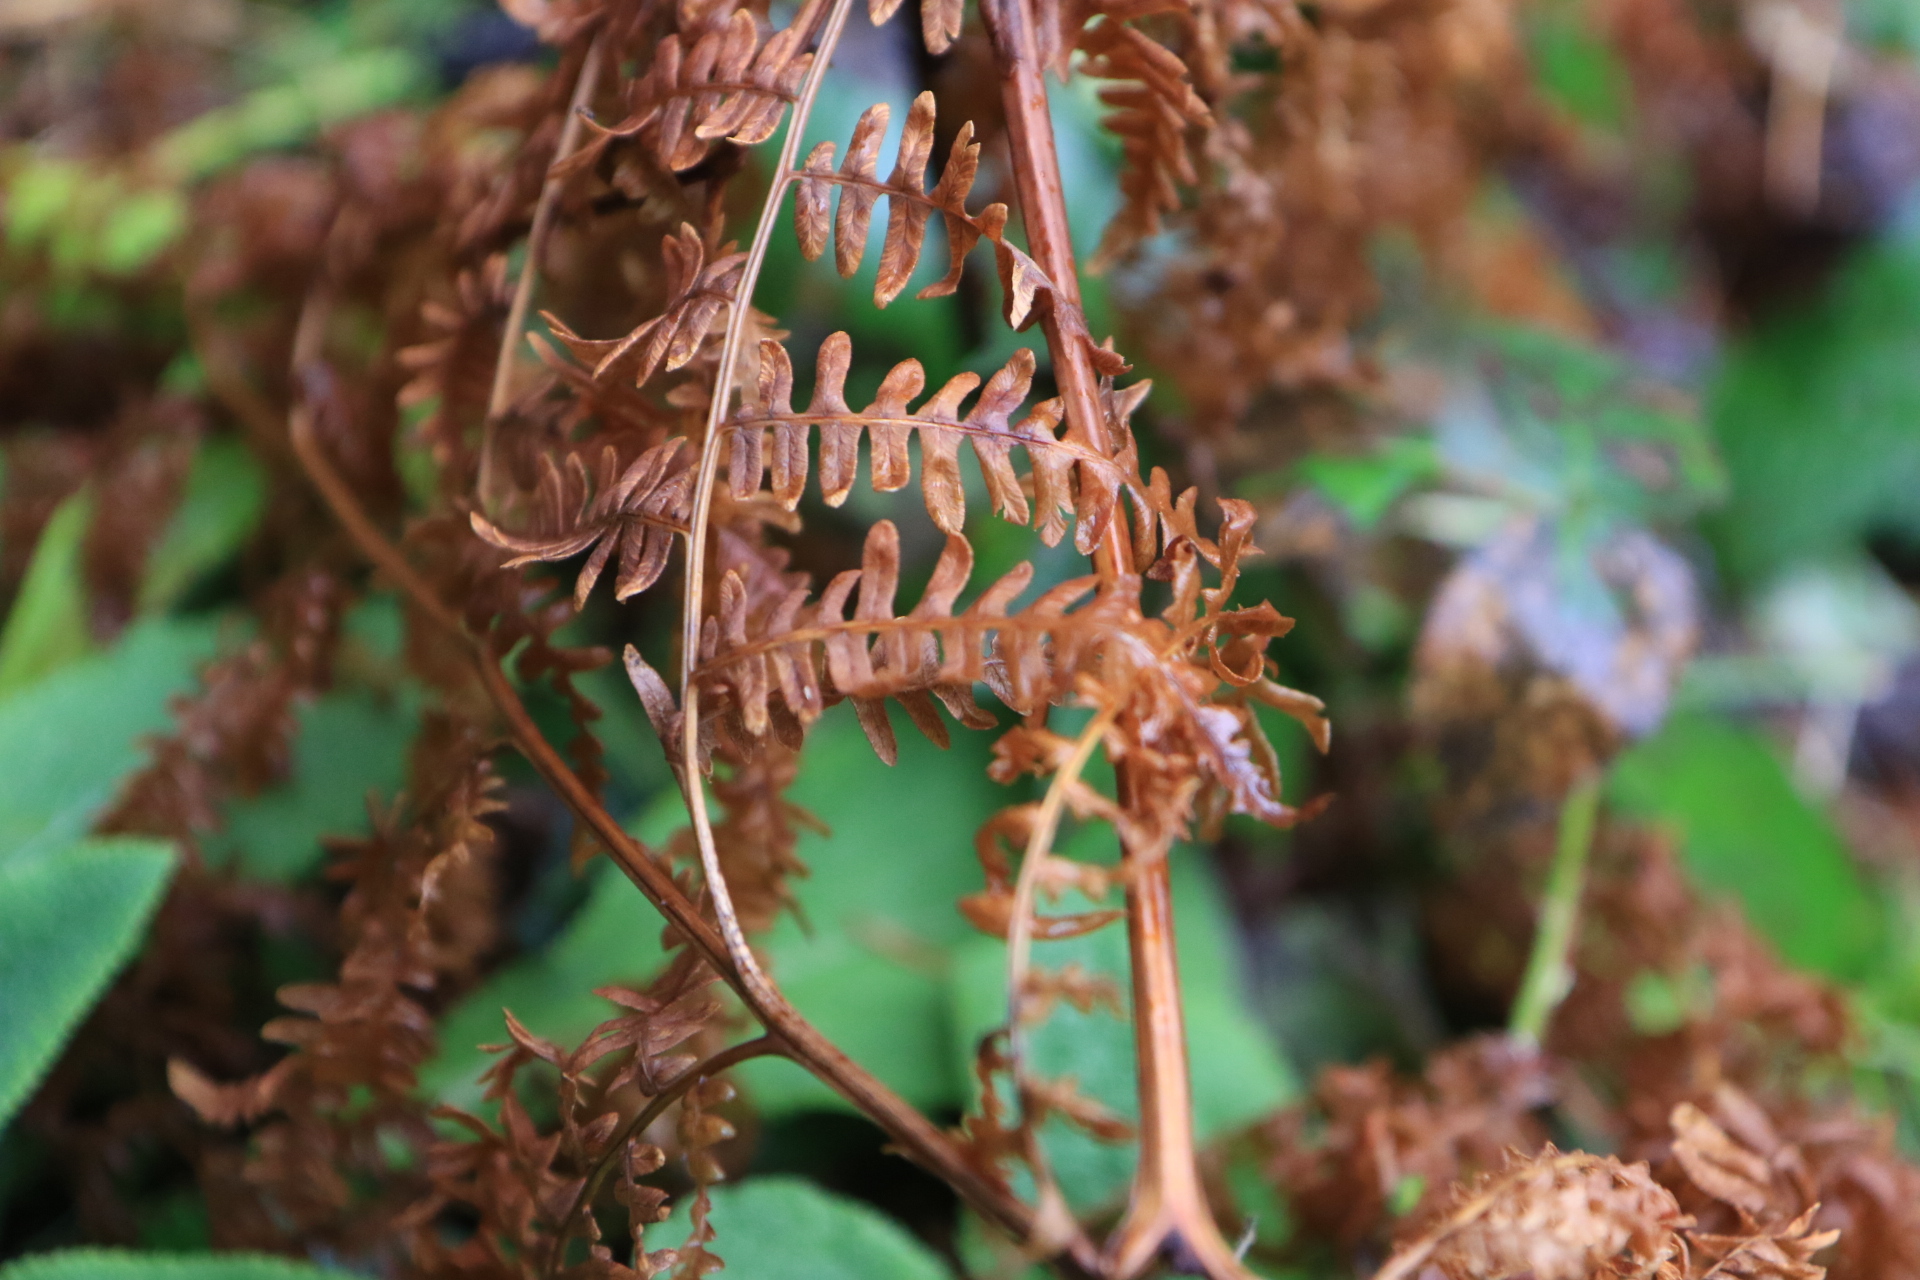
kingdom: Plantae
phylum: Tracheophyta
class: Polypodiopsida
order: Polypodiales
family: Dennstaedtiaceae
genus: Pteridium
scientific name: Pteridium aquilinum
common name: Bracken
